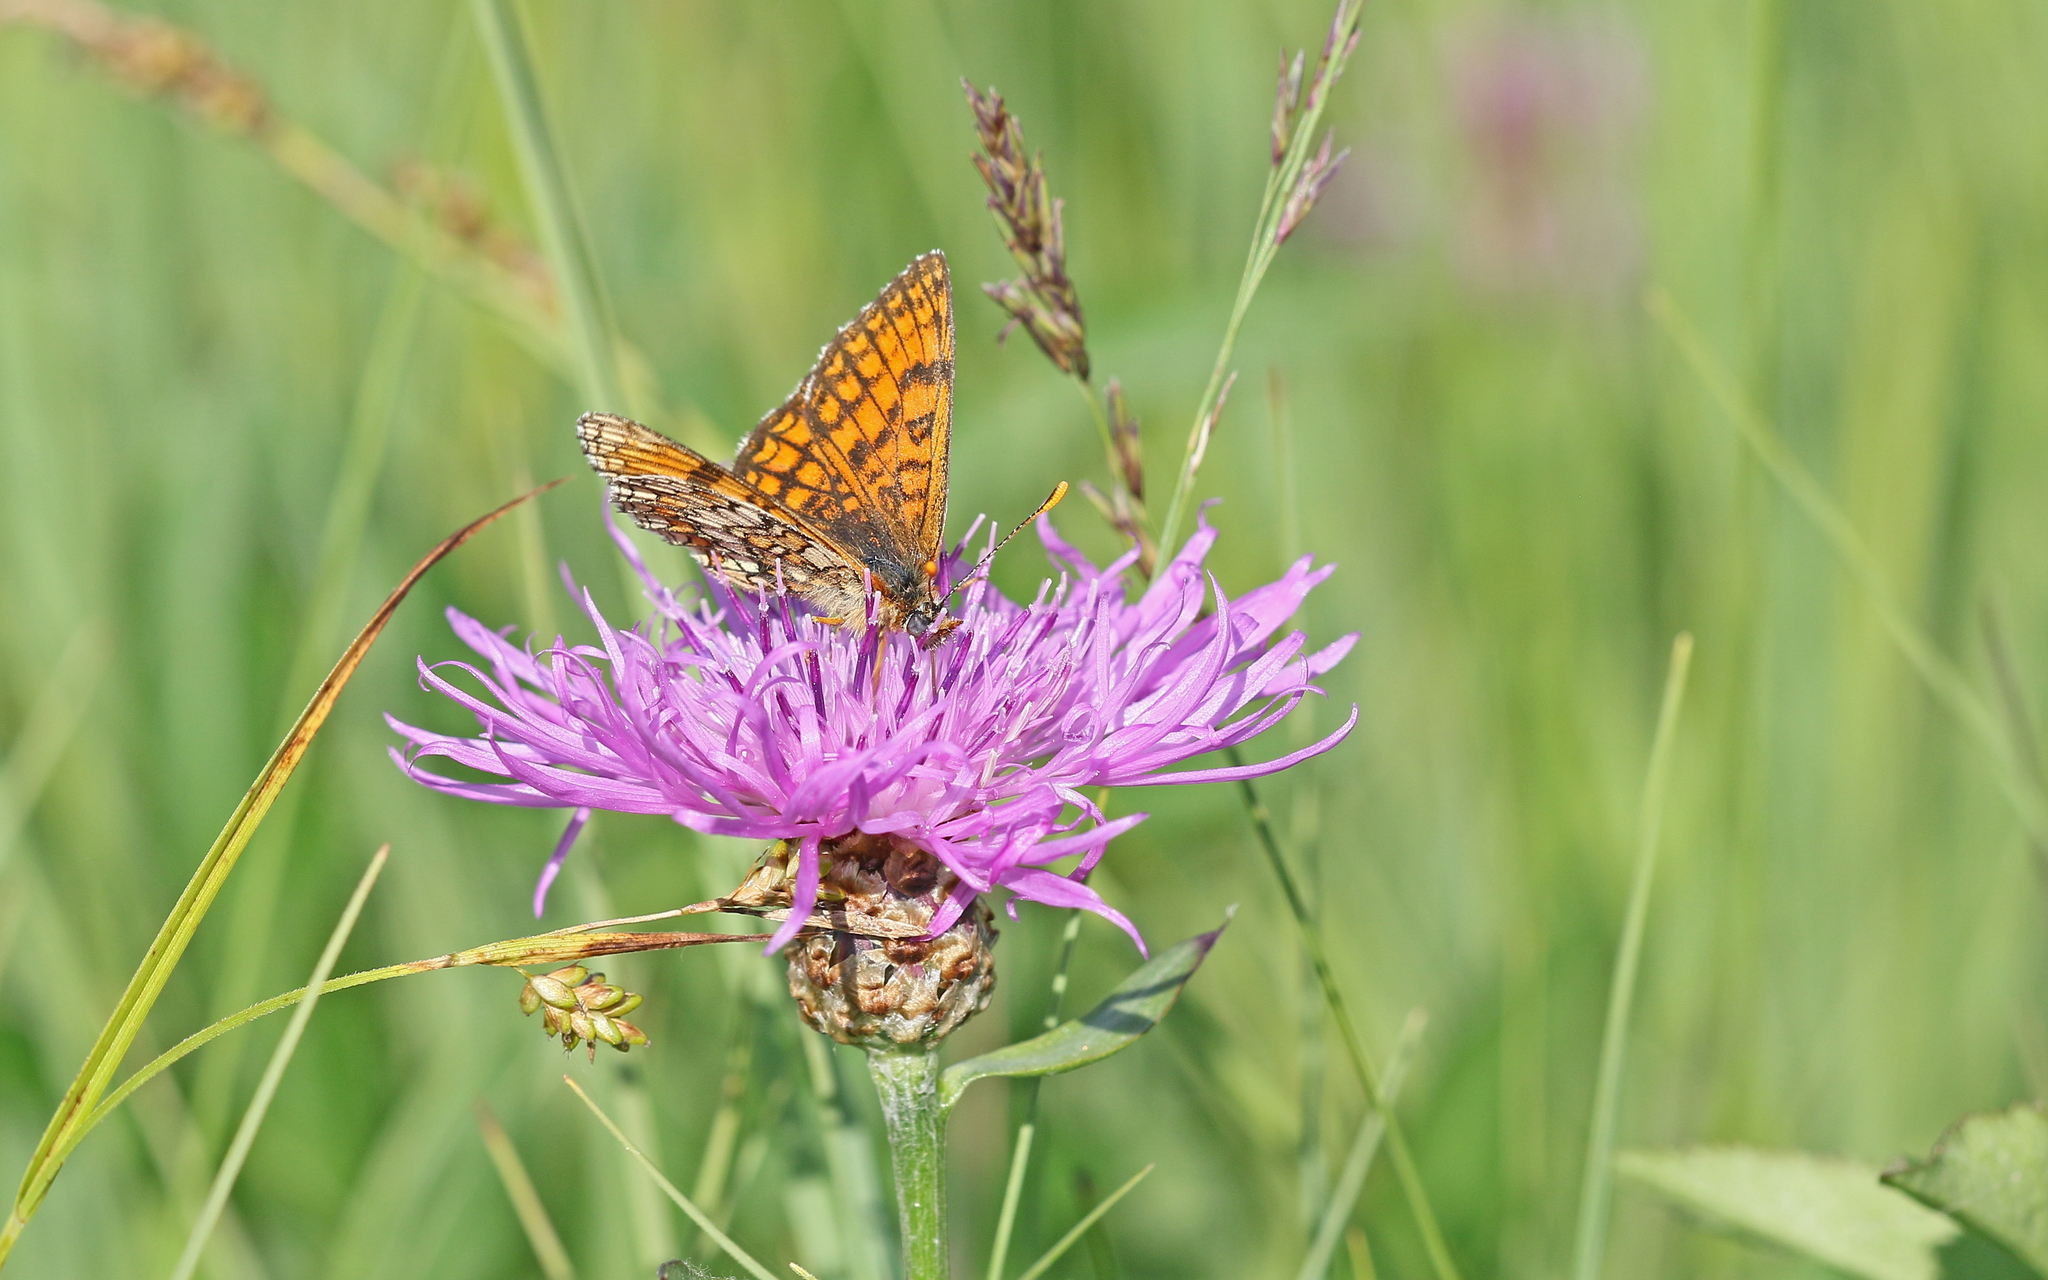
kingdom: Animalia
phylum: Arthropoda
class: Insecta
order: Lepidoptera
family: Nymphalidae
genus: Mellicta
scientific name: Mellicta parthenoides
